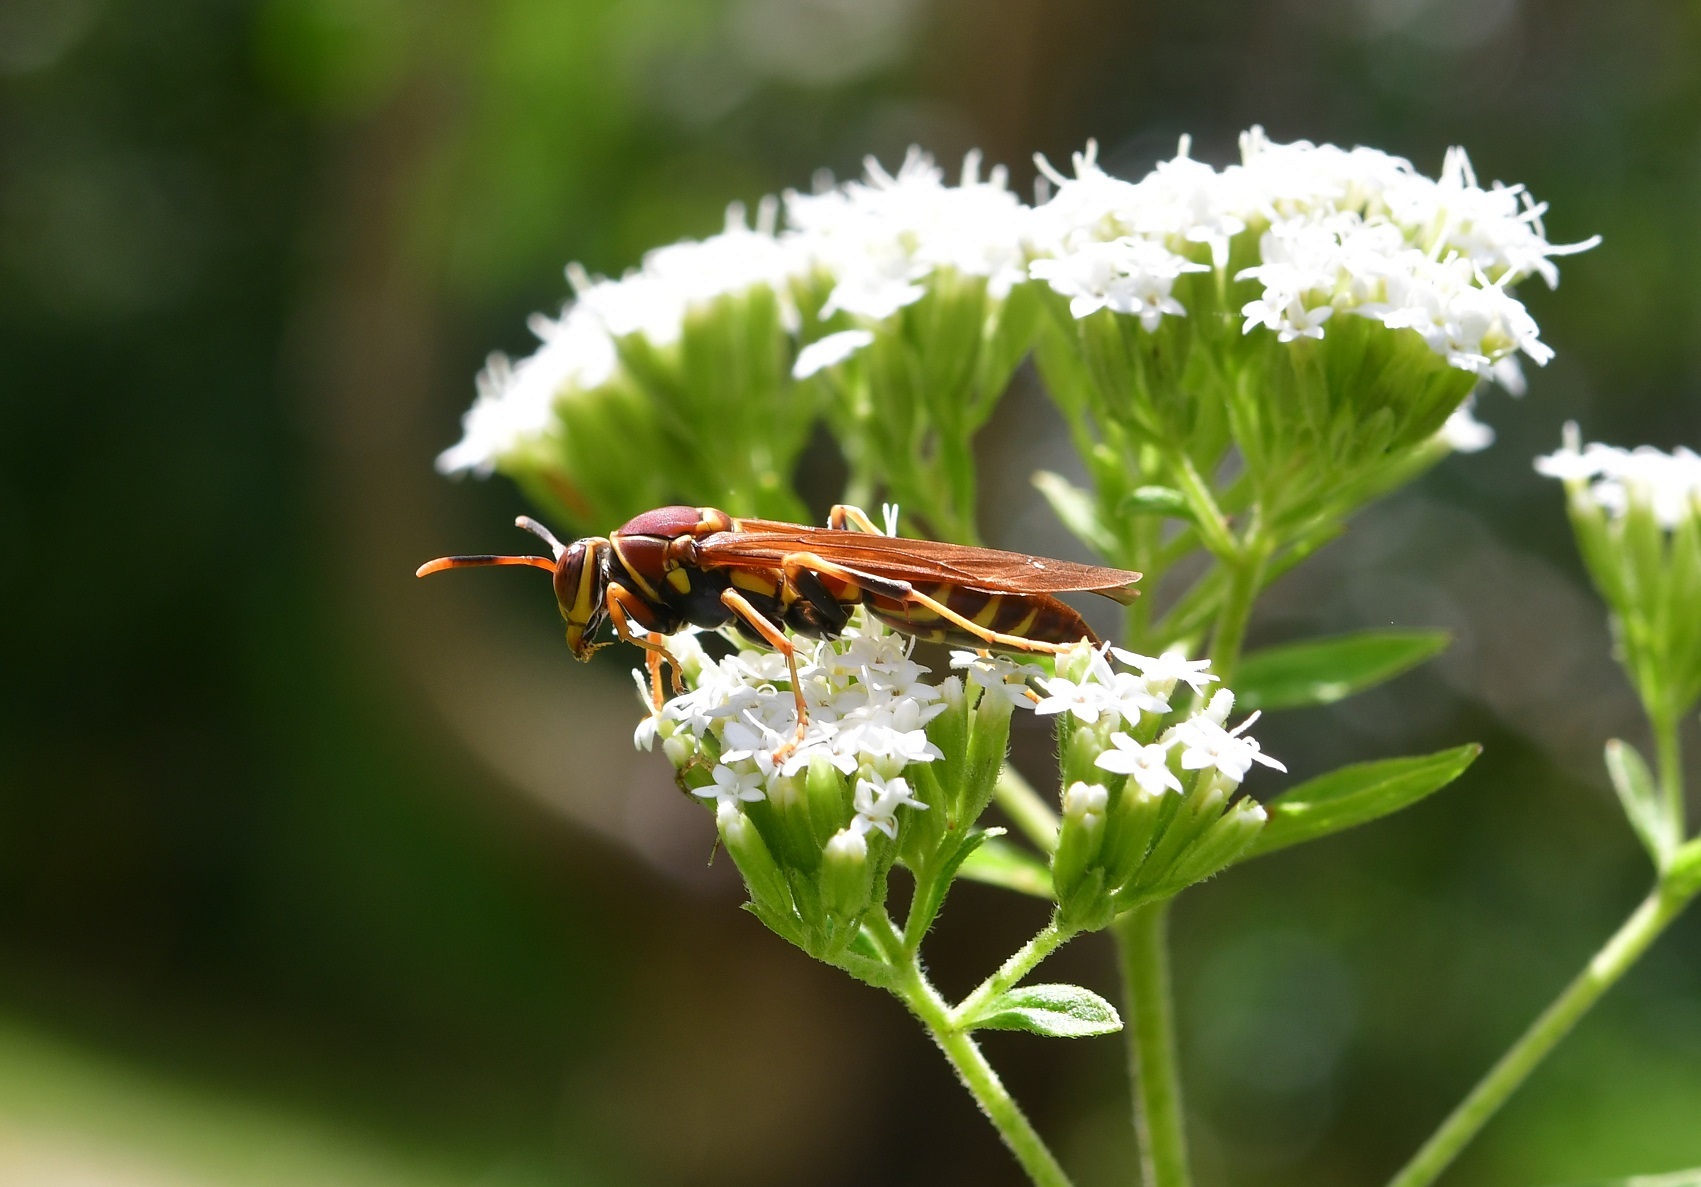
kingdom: Animalia
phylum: Arthropoda
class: Insecta
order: Hymenoptera
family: Eumenidae
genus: Polistes
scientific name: Polistes instabilis
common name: Unstable paper wasp
